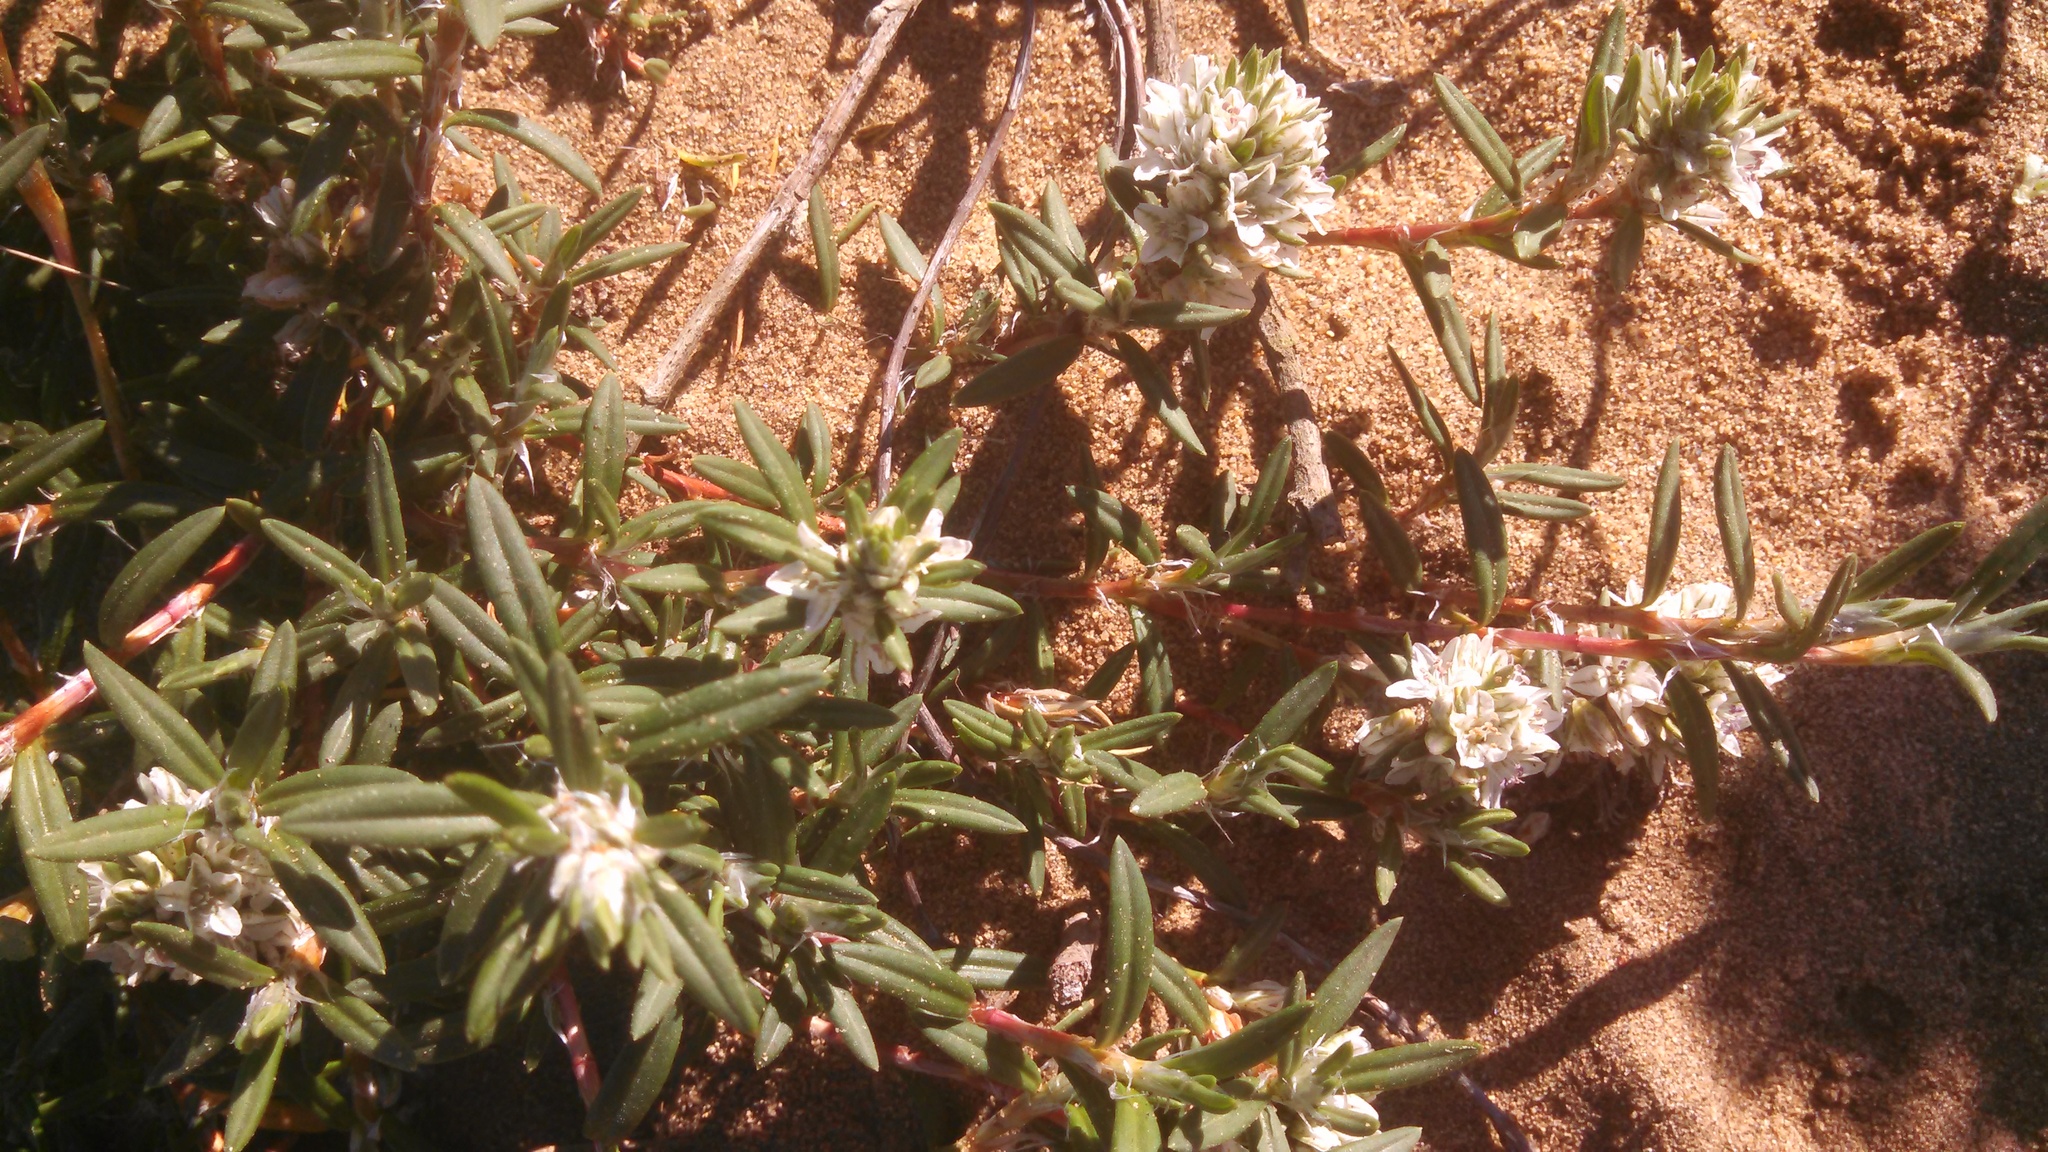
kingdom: Plantae
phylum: Tracheophyta
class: Magnoliopsida
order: Caryophyllales
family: Polygonaceae
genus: Polygonum
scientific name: Polygonum paronychia
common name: Dune knotweed
